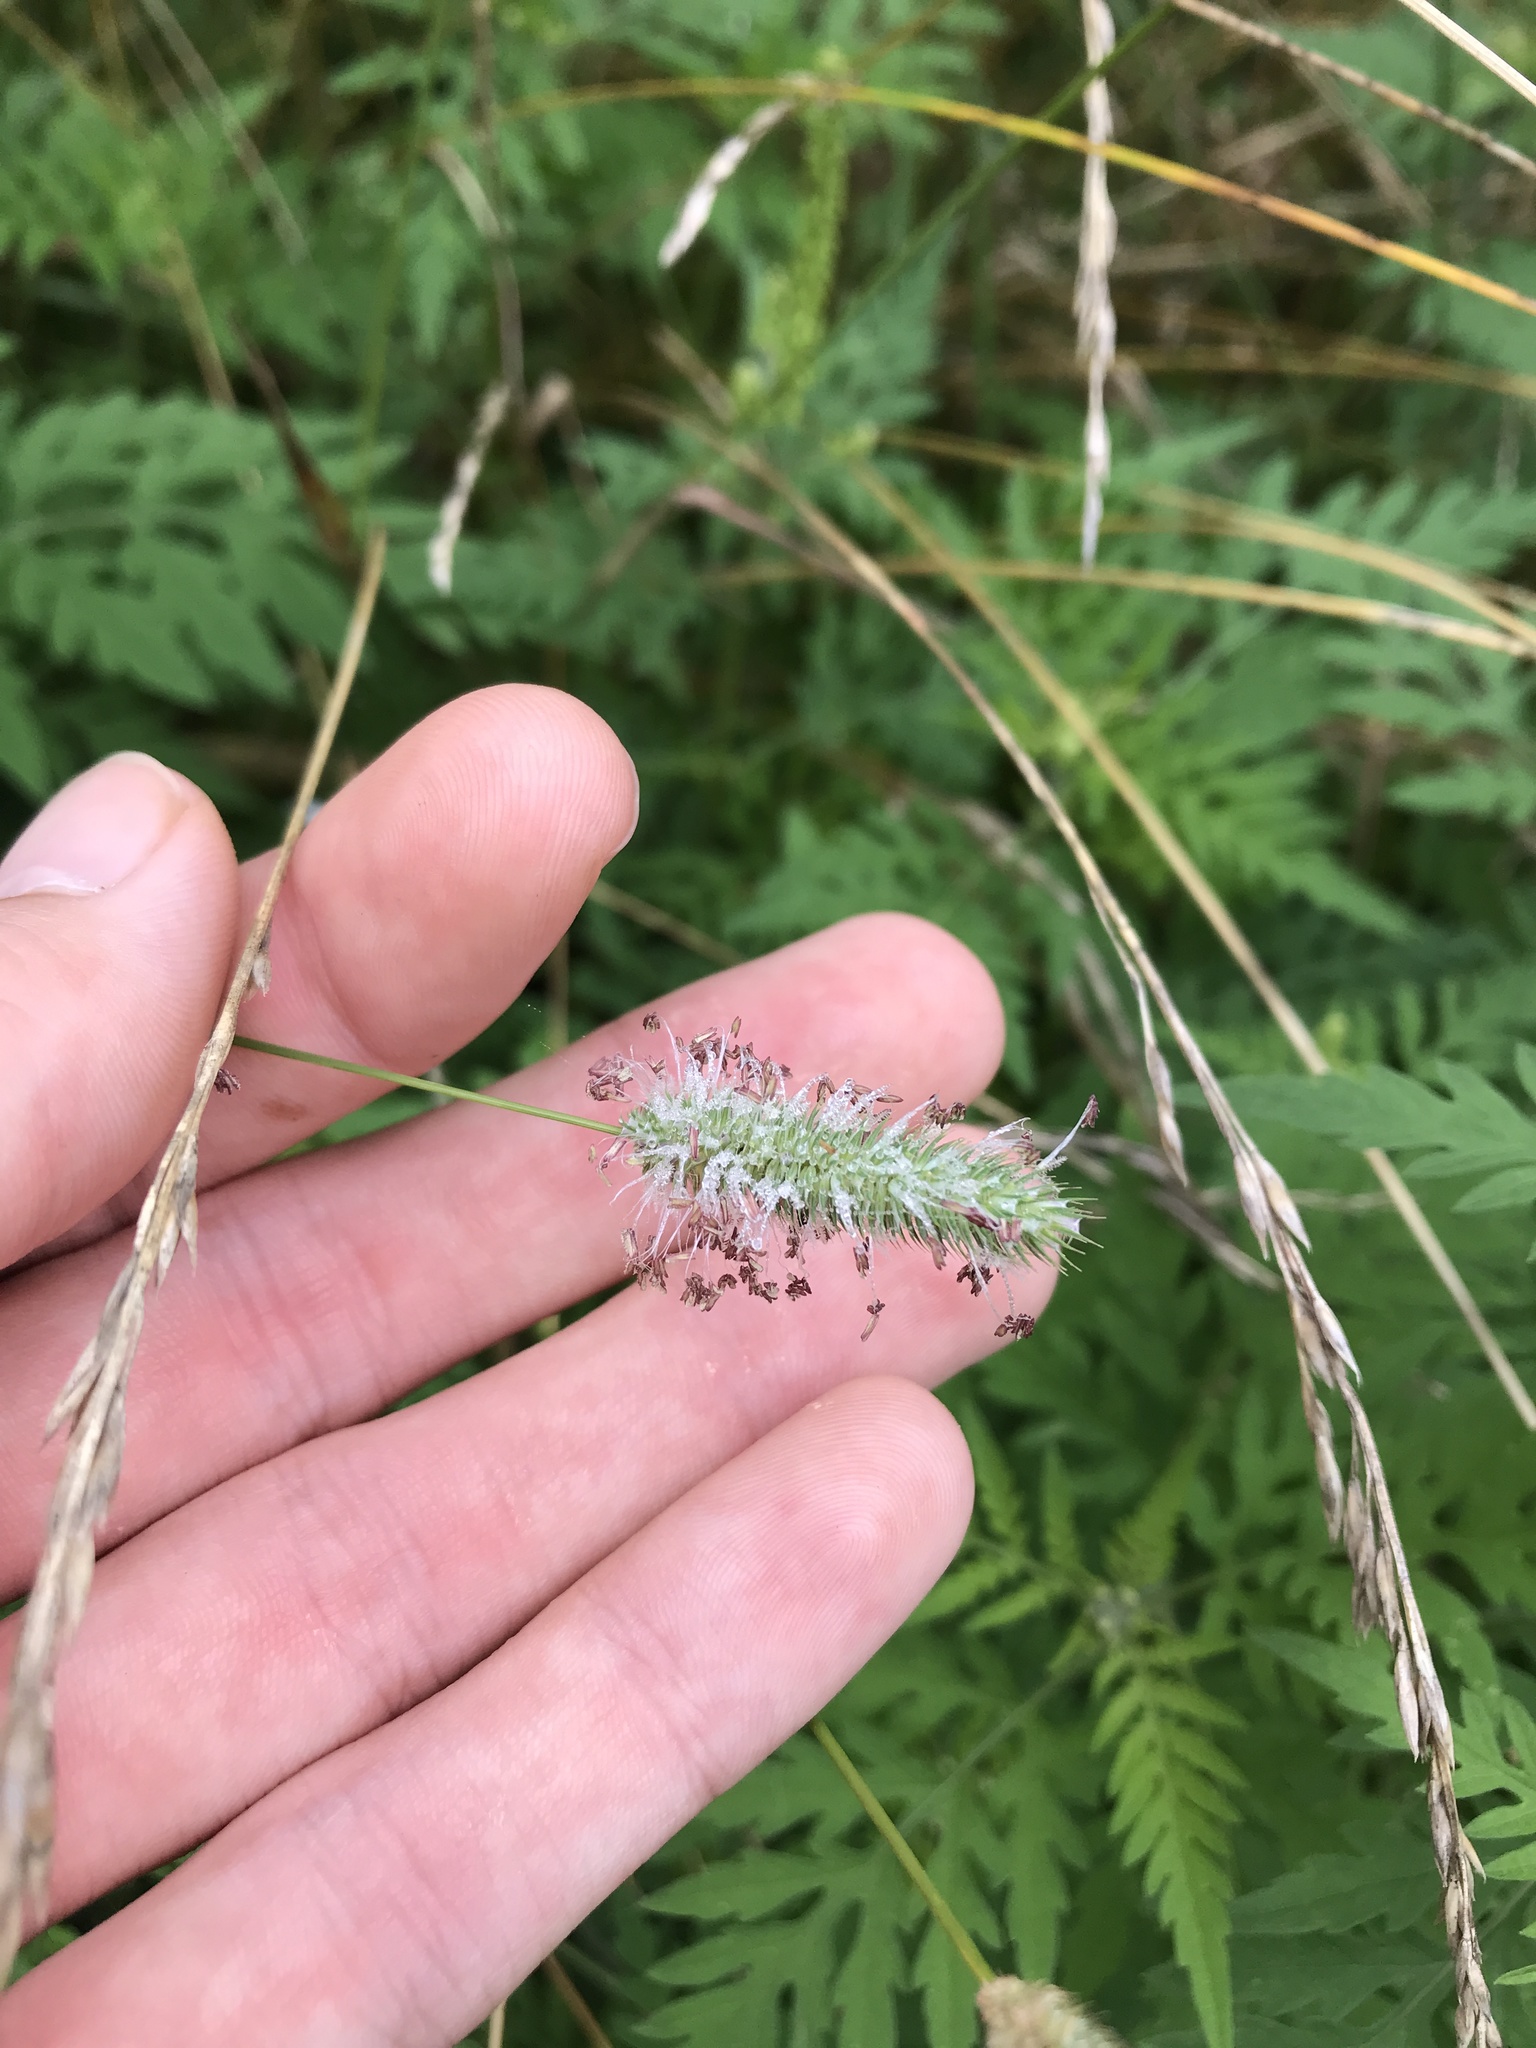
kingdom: Plantae
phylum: Tracheophyta
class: Liliopsida
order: Poales
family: Poaceae
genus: Phleum
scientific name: Phleum pratense
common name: Timothy grass
